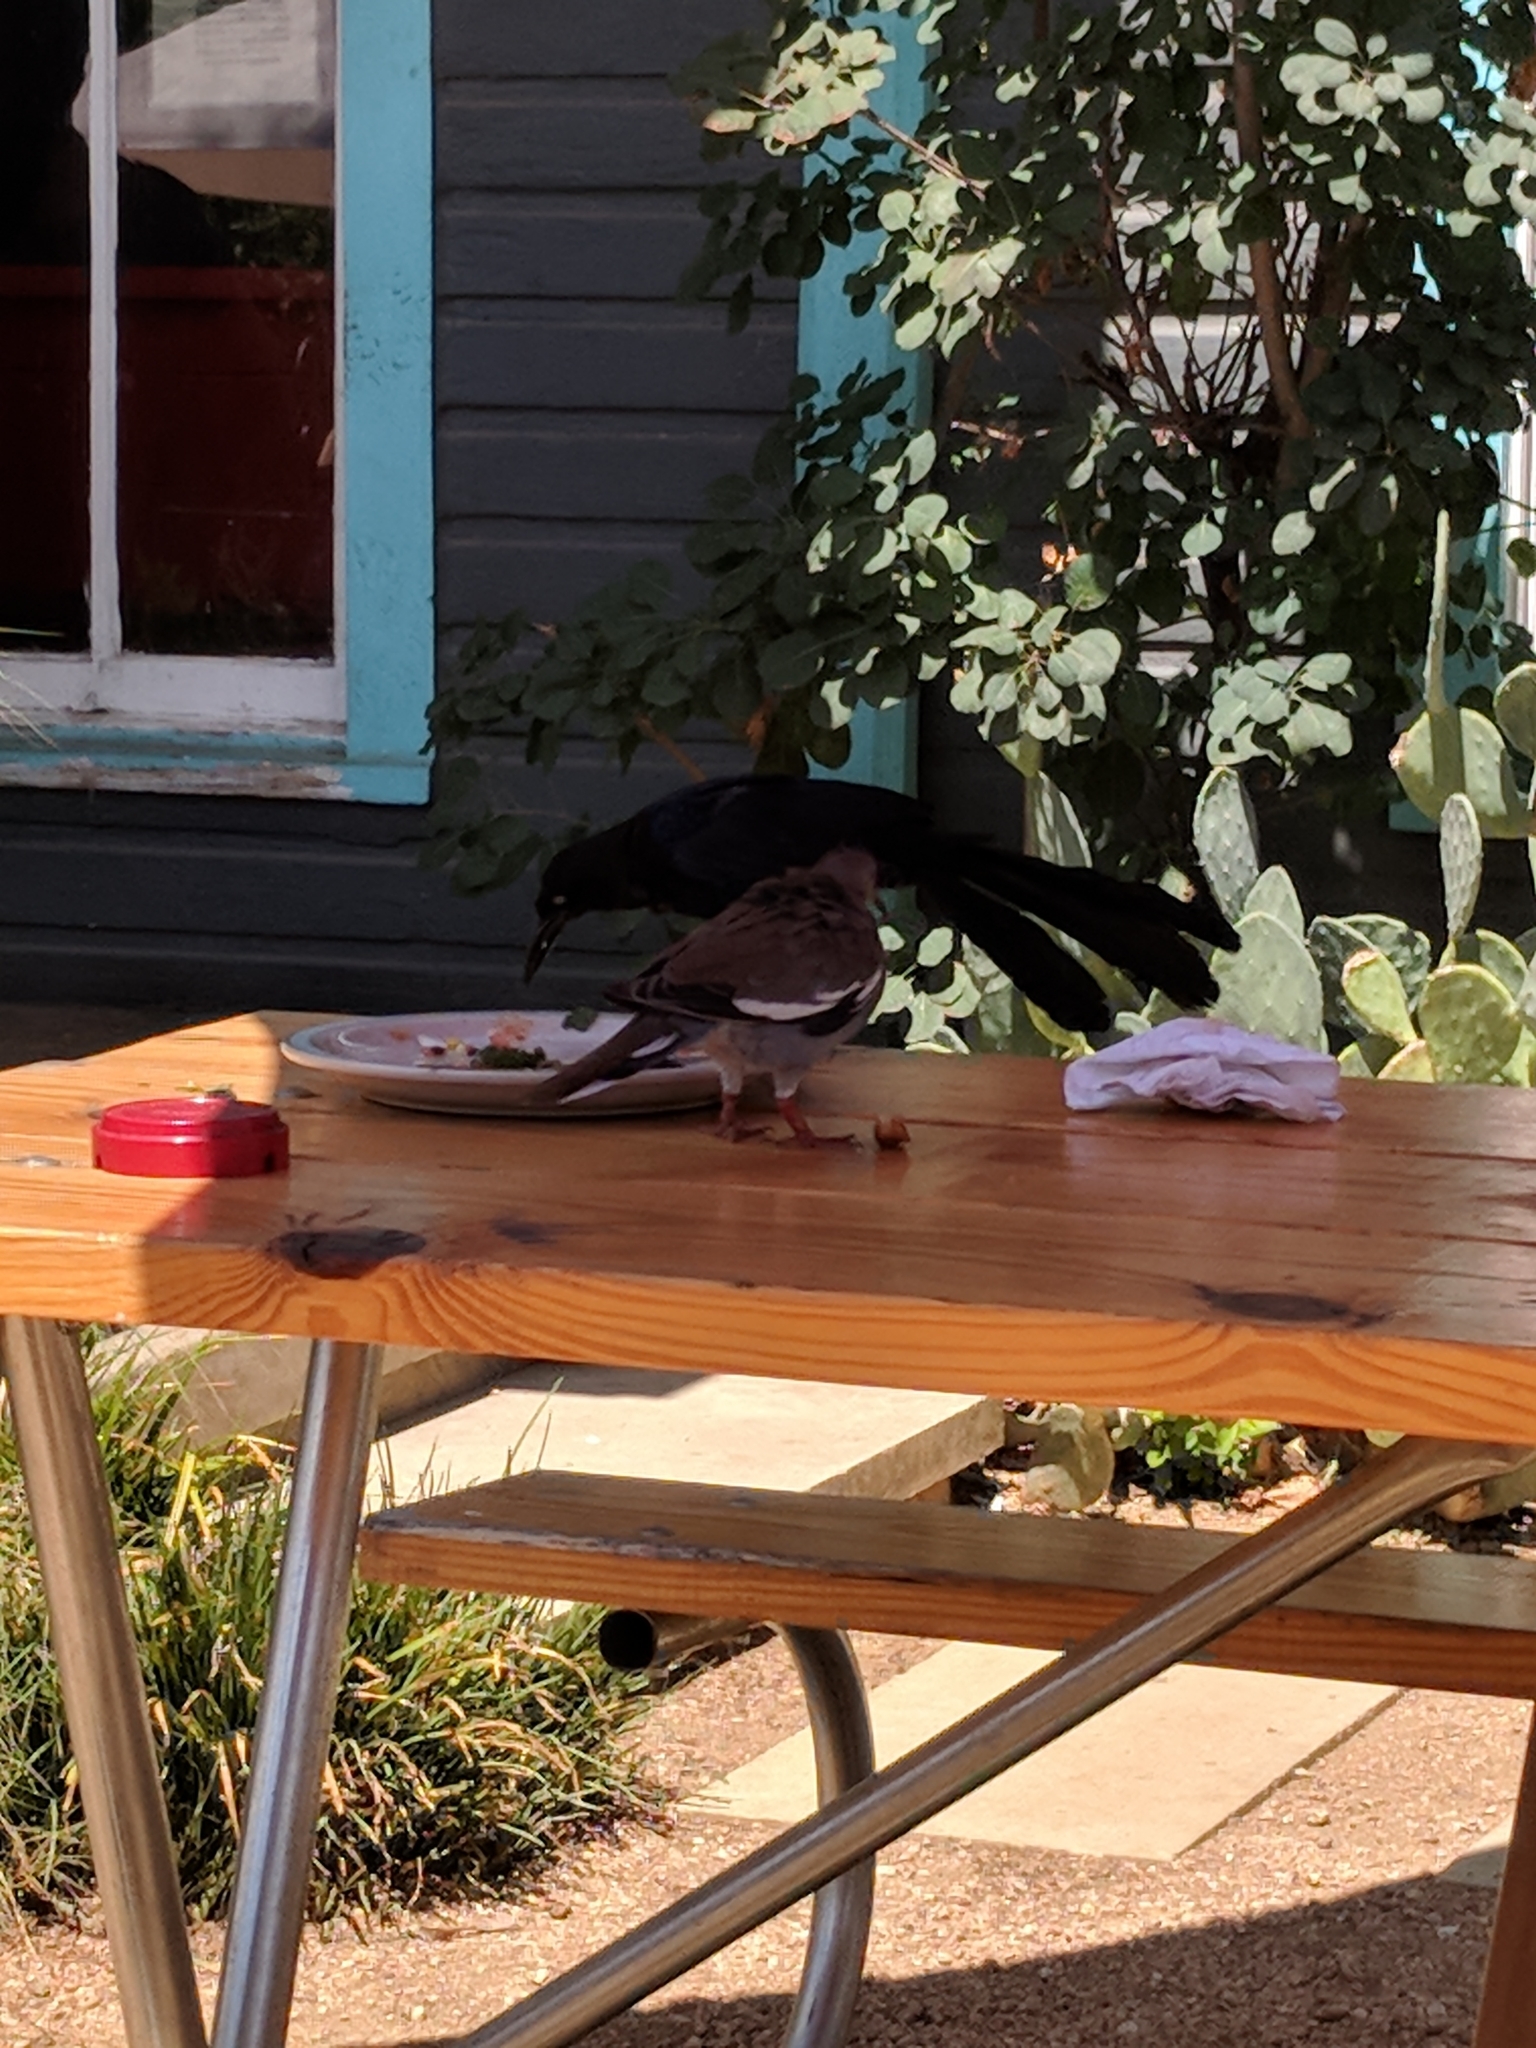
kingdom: Animalia
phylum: Chordata
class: Aves
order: Columbiformes
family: Columbidae
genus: Zenaida
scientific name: Zenaida asiatica
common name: White-winged dove
